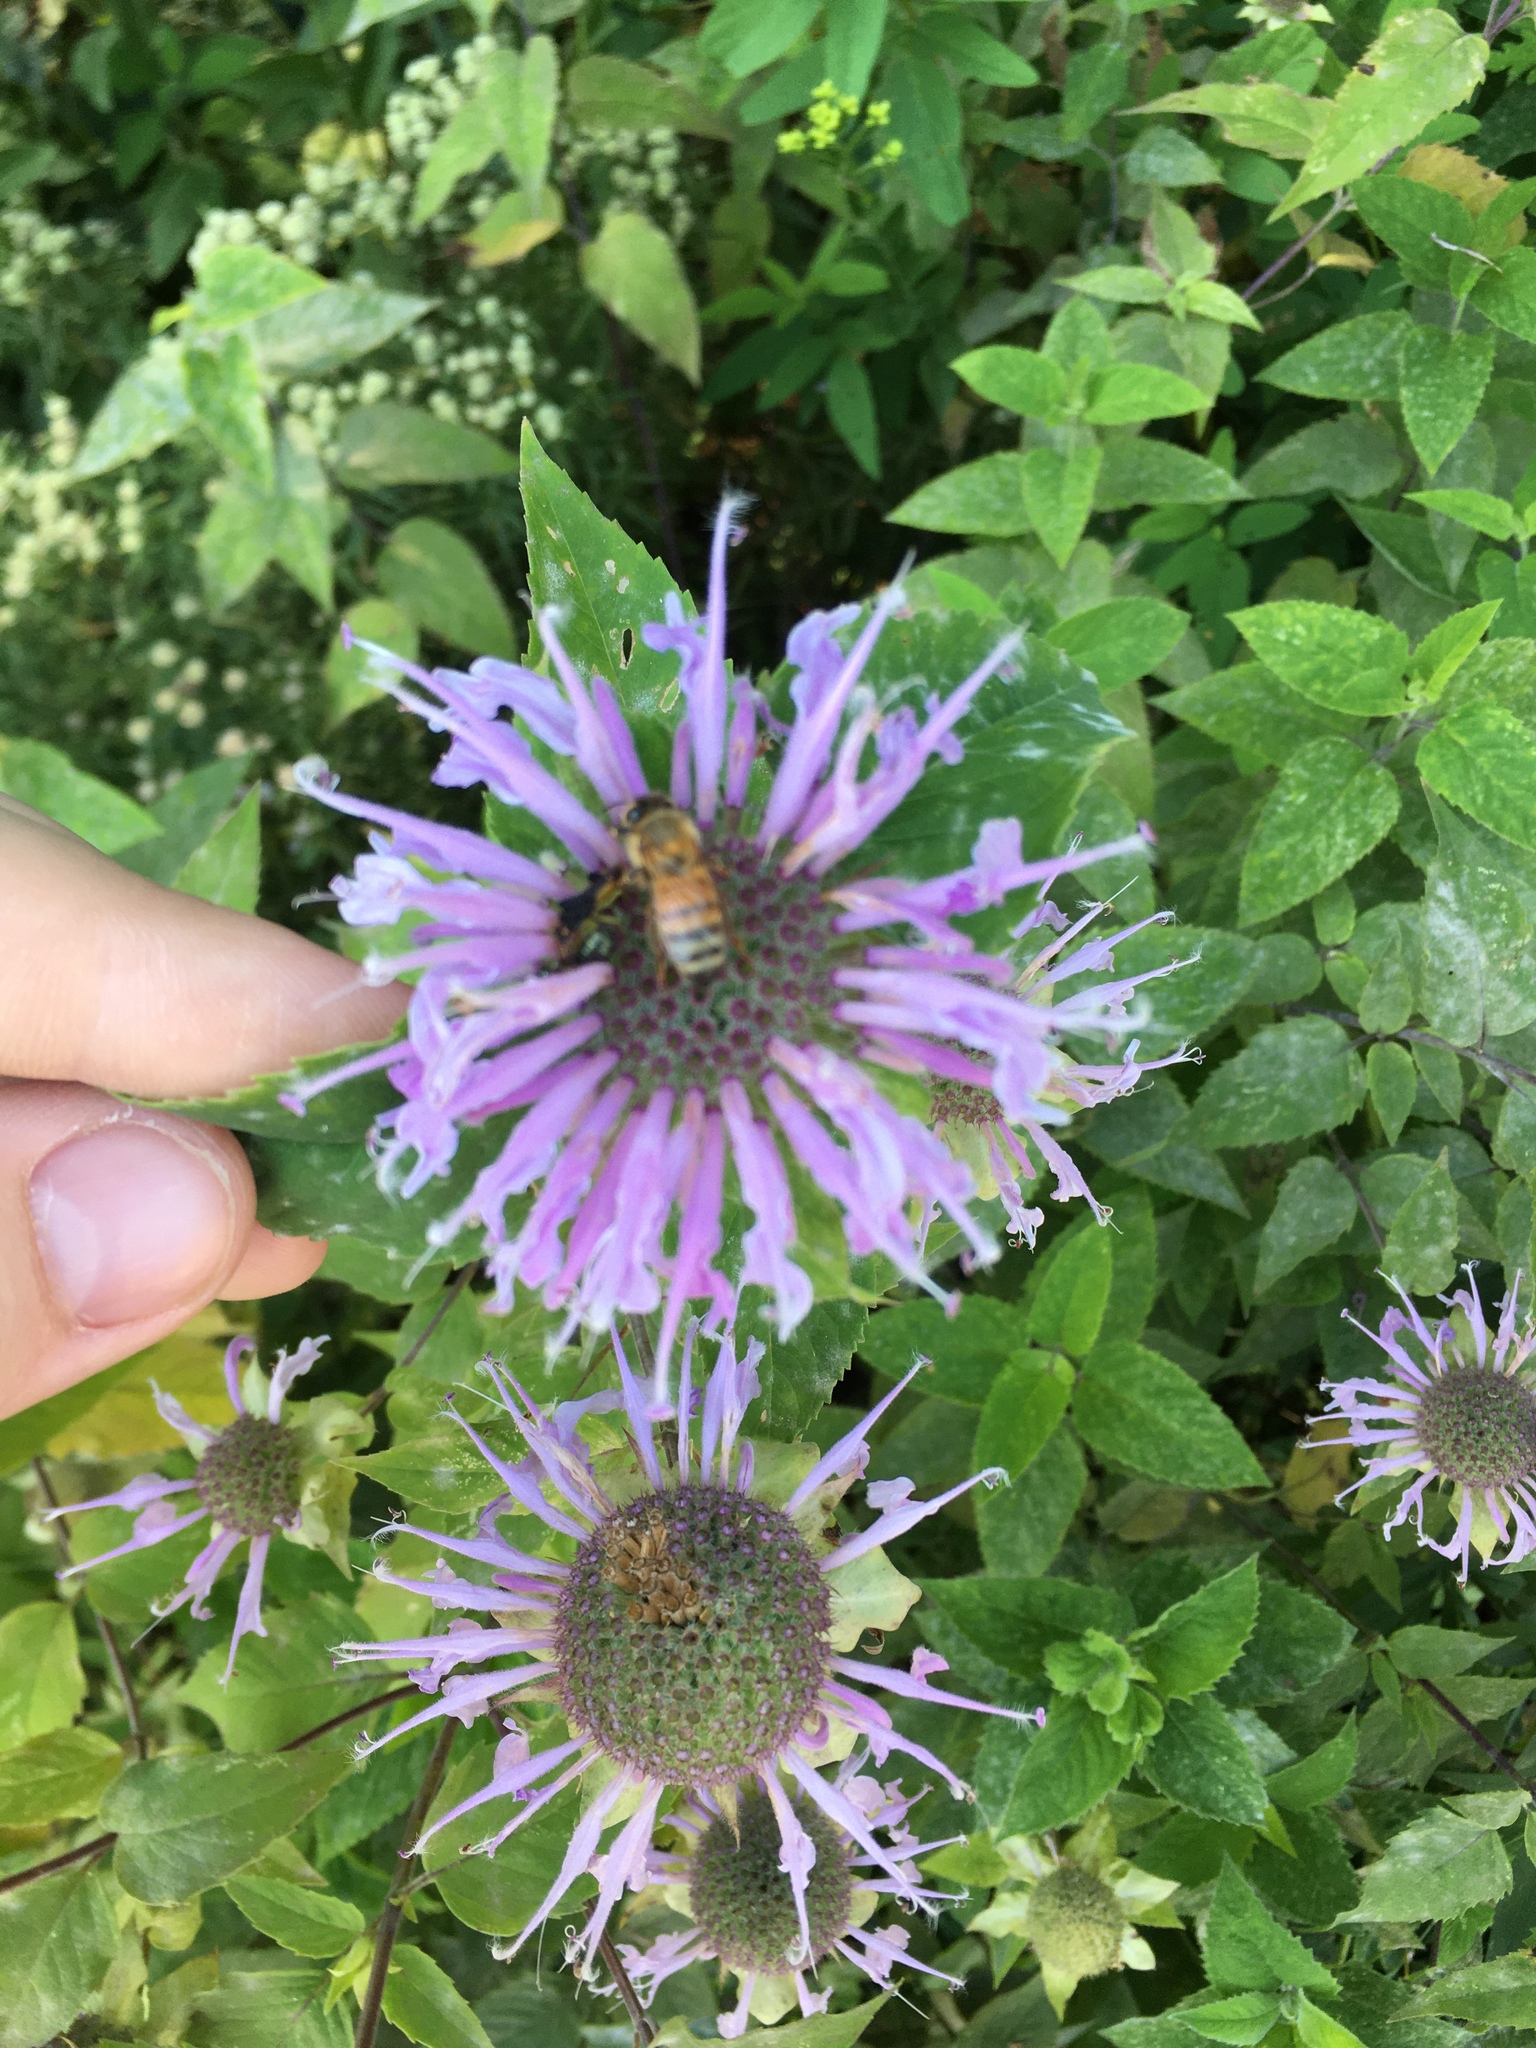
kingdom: Animalia
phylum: Arthropoda
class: Insecta
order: Hymenoptera
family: Apidae
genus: Apis
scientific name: Apis mellifera
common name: Honey bee
